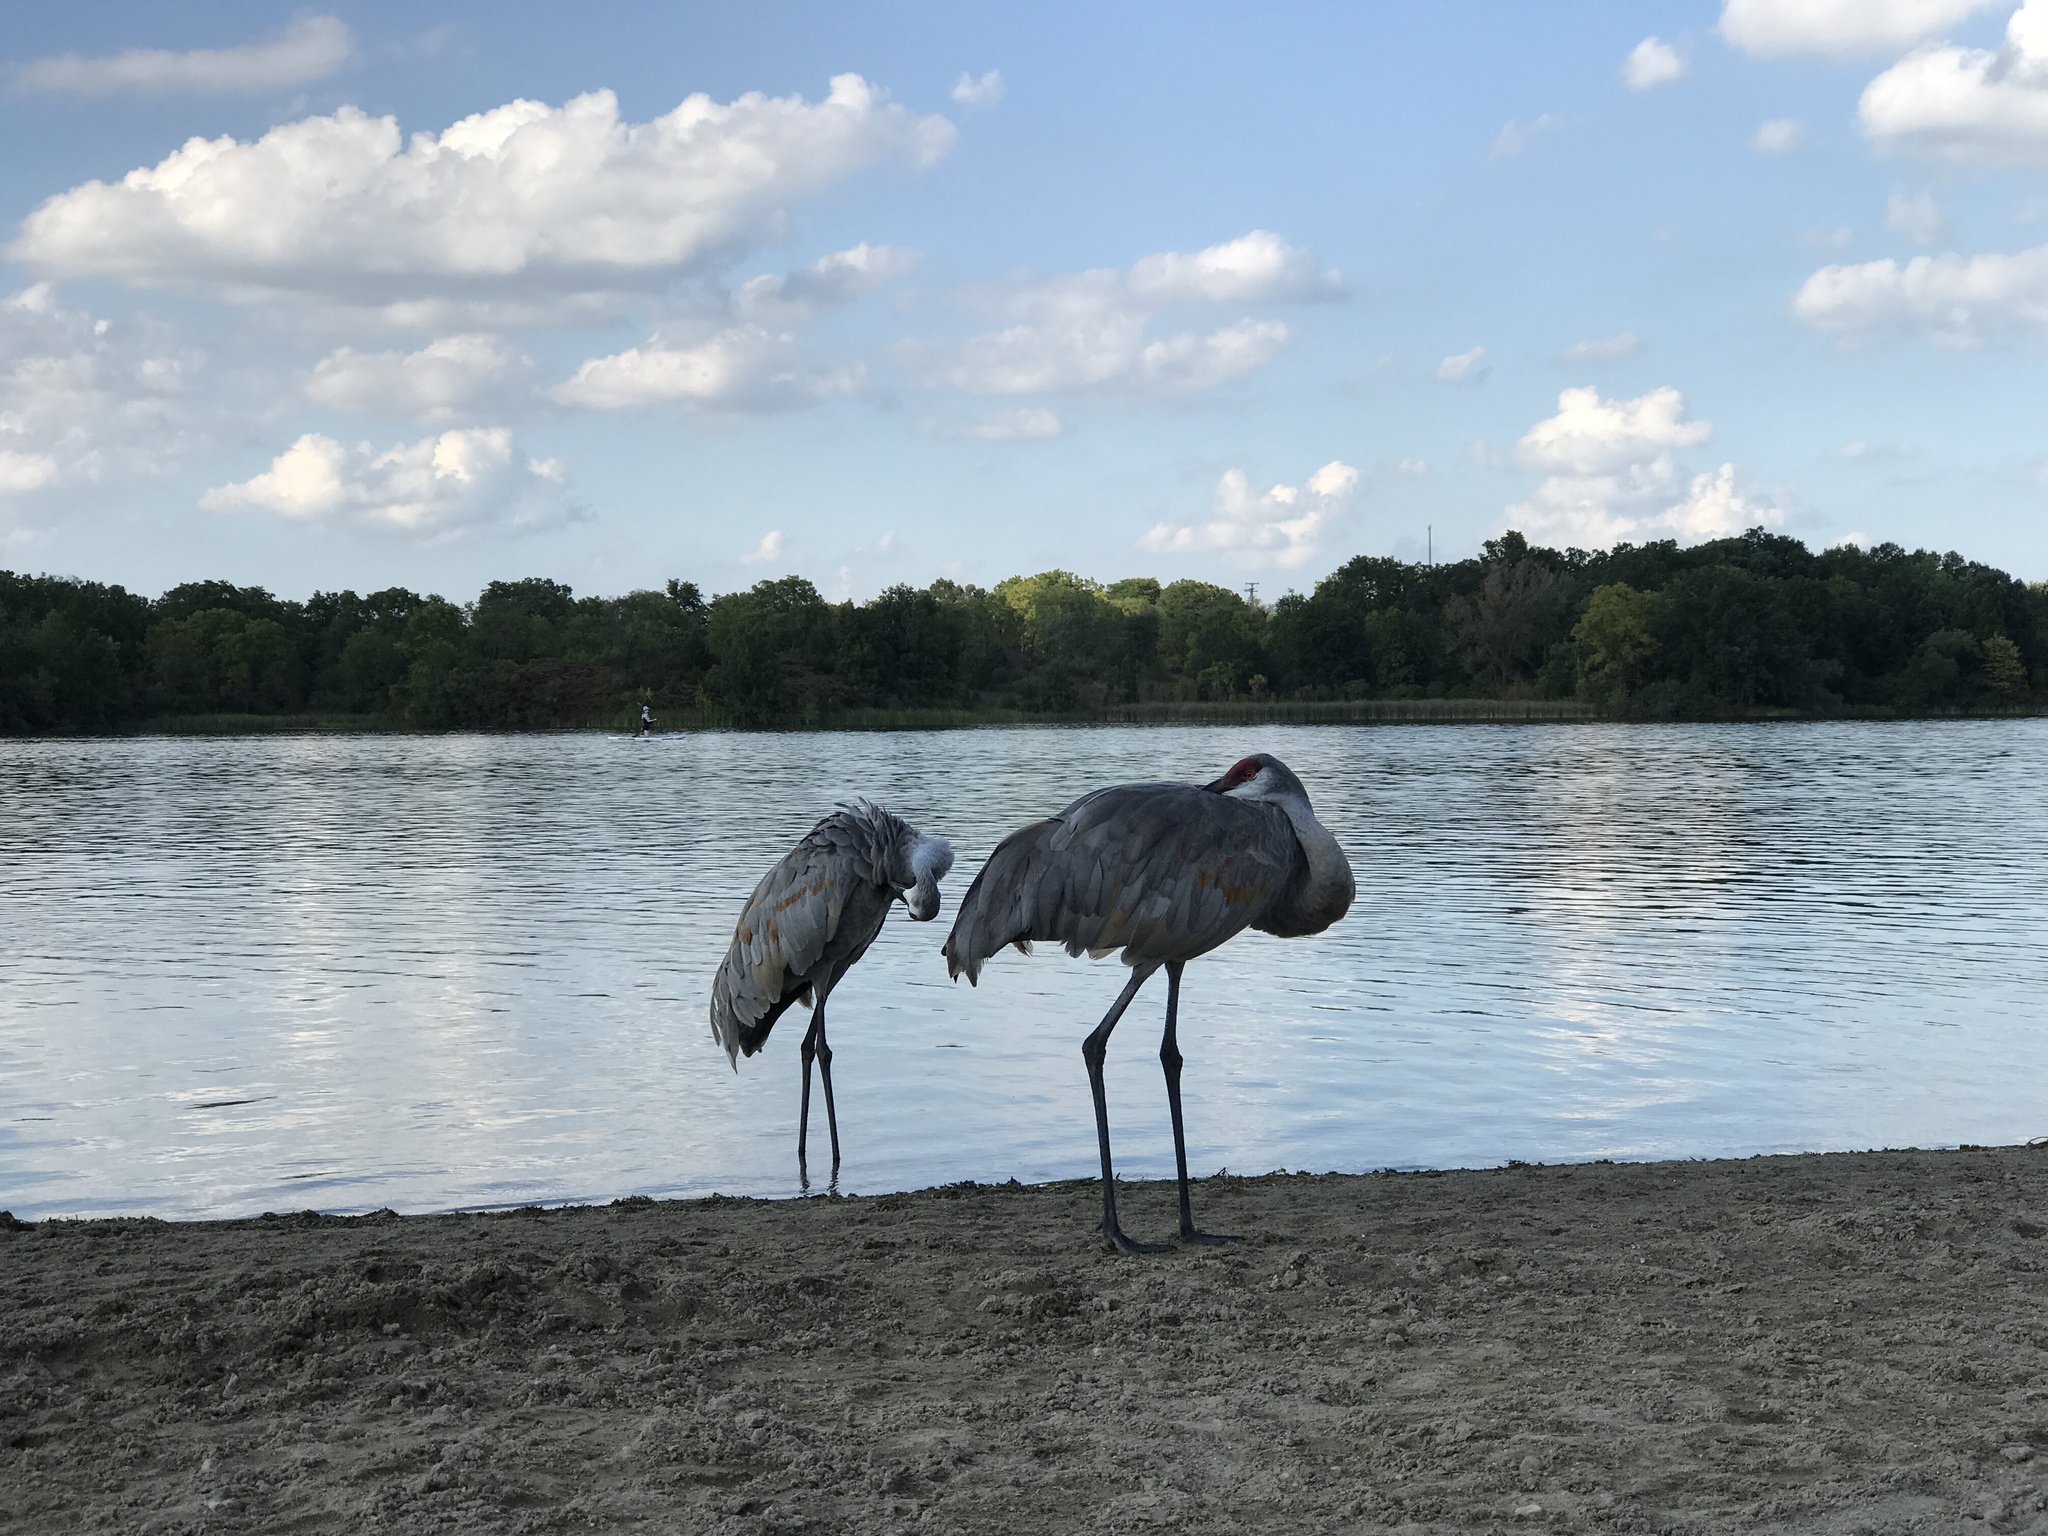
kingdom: Animalia
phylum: Chordata
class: Aves
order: Gruiformes
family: Gruidae
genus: Grus
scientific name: Grus canadensis
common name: Sandhill crane
